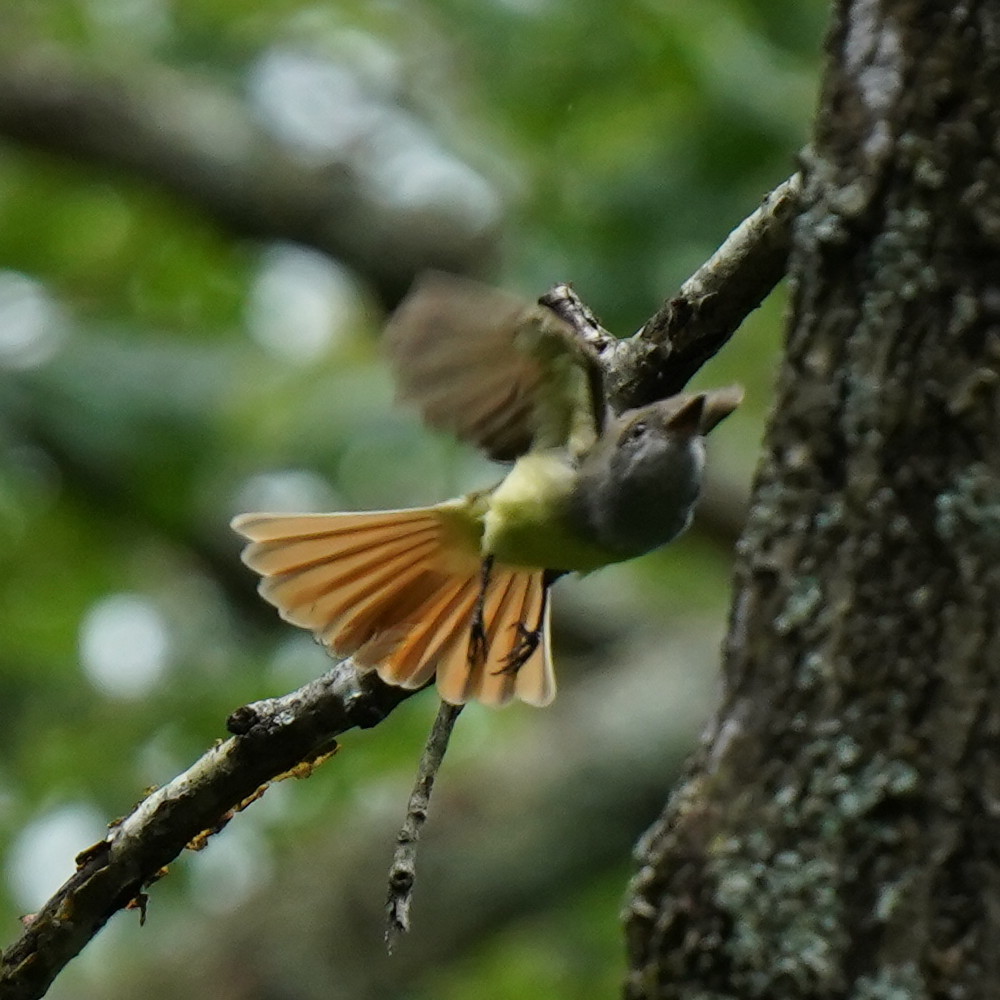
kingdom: Animalia
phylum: Chordata
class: Aves
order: Passeriformes
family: Tyrannidae
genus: Myiarchus
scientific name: Myiarchus crinitus
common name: Great crested flycatcher
